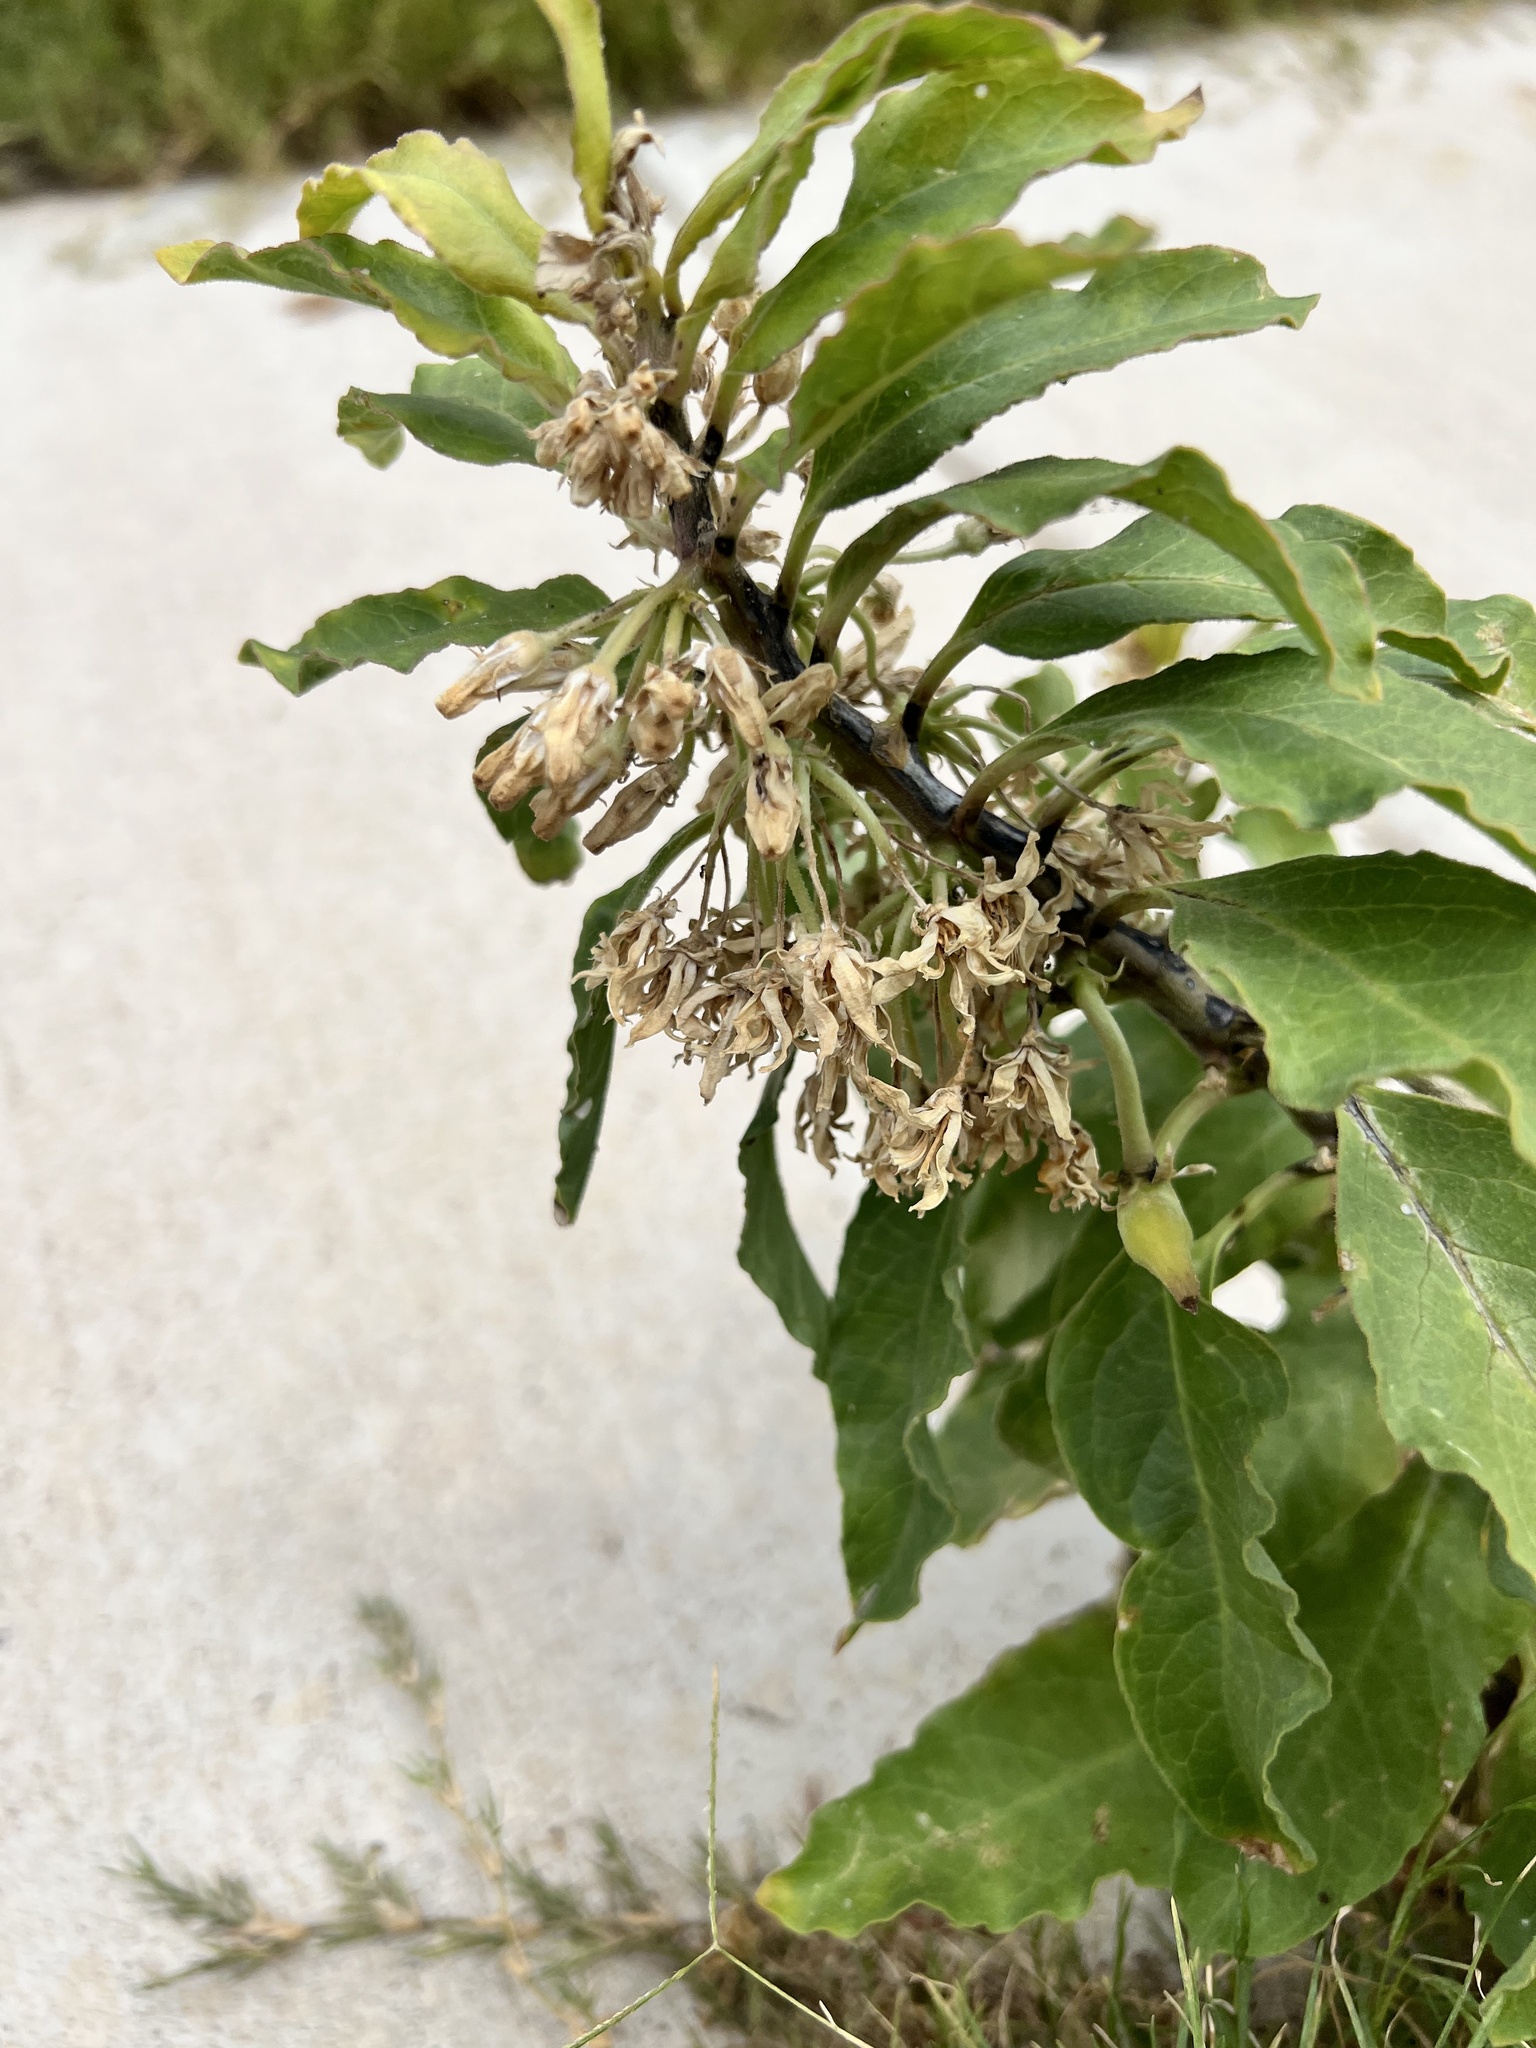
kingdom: Plantae
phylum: Tracheophyta
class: Magnoliopsida
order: Gentianales
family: Apocynaceae
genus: Asclepias
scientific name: Asclepias oenotheroides
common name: Zizotes milkweed
